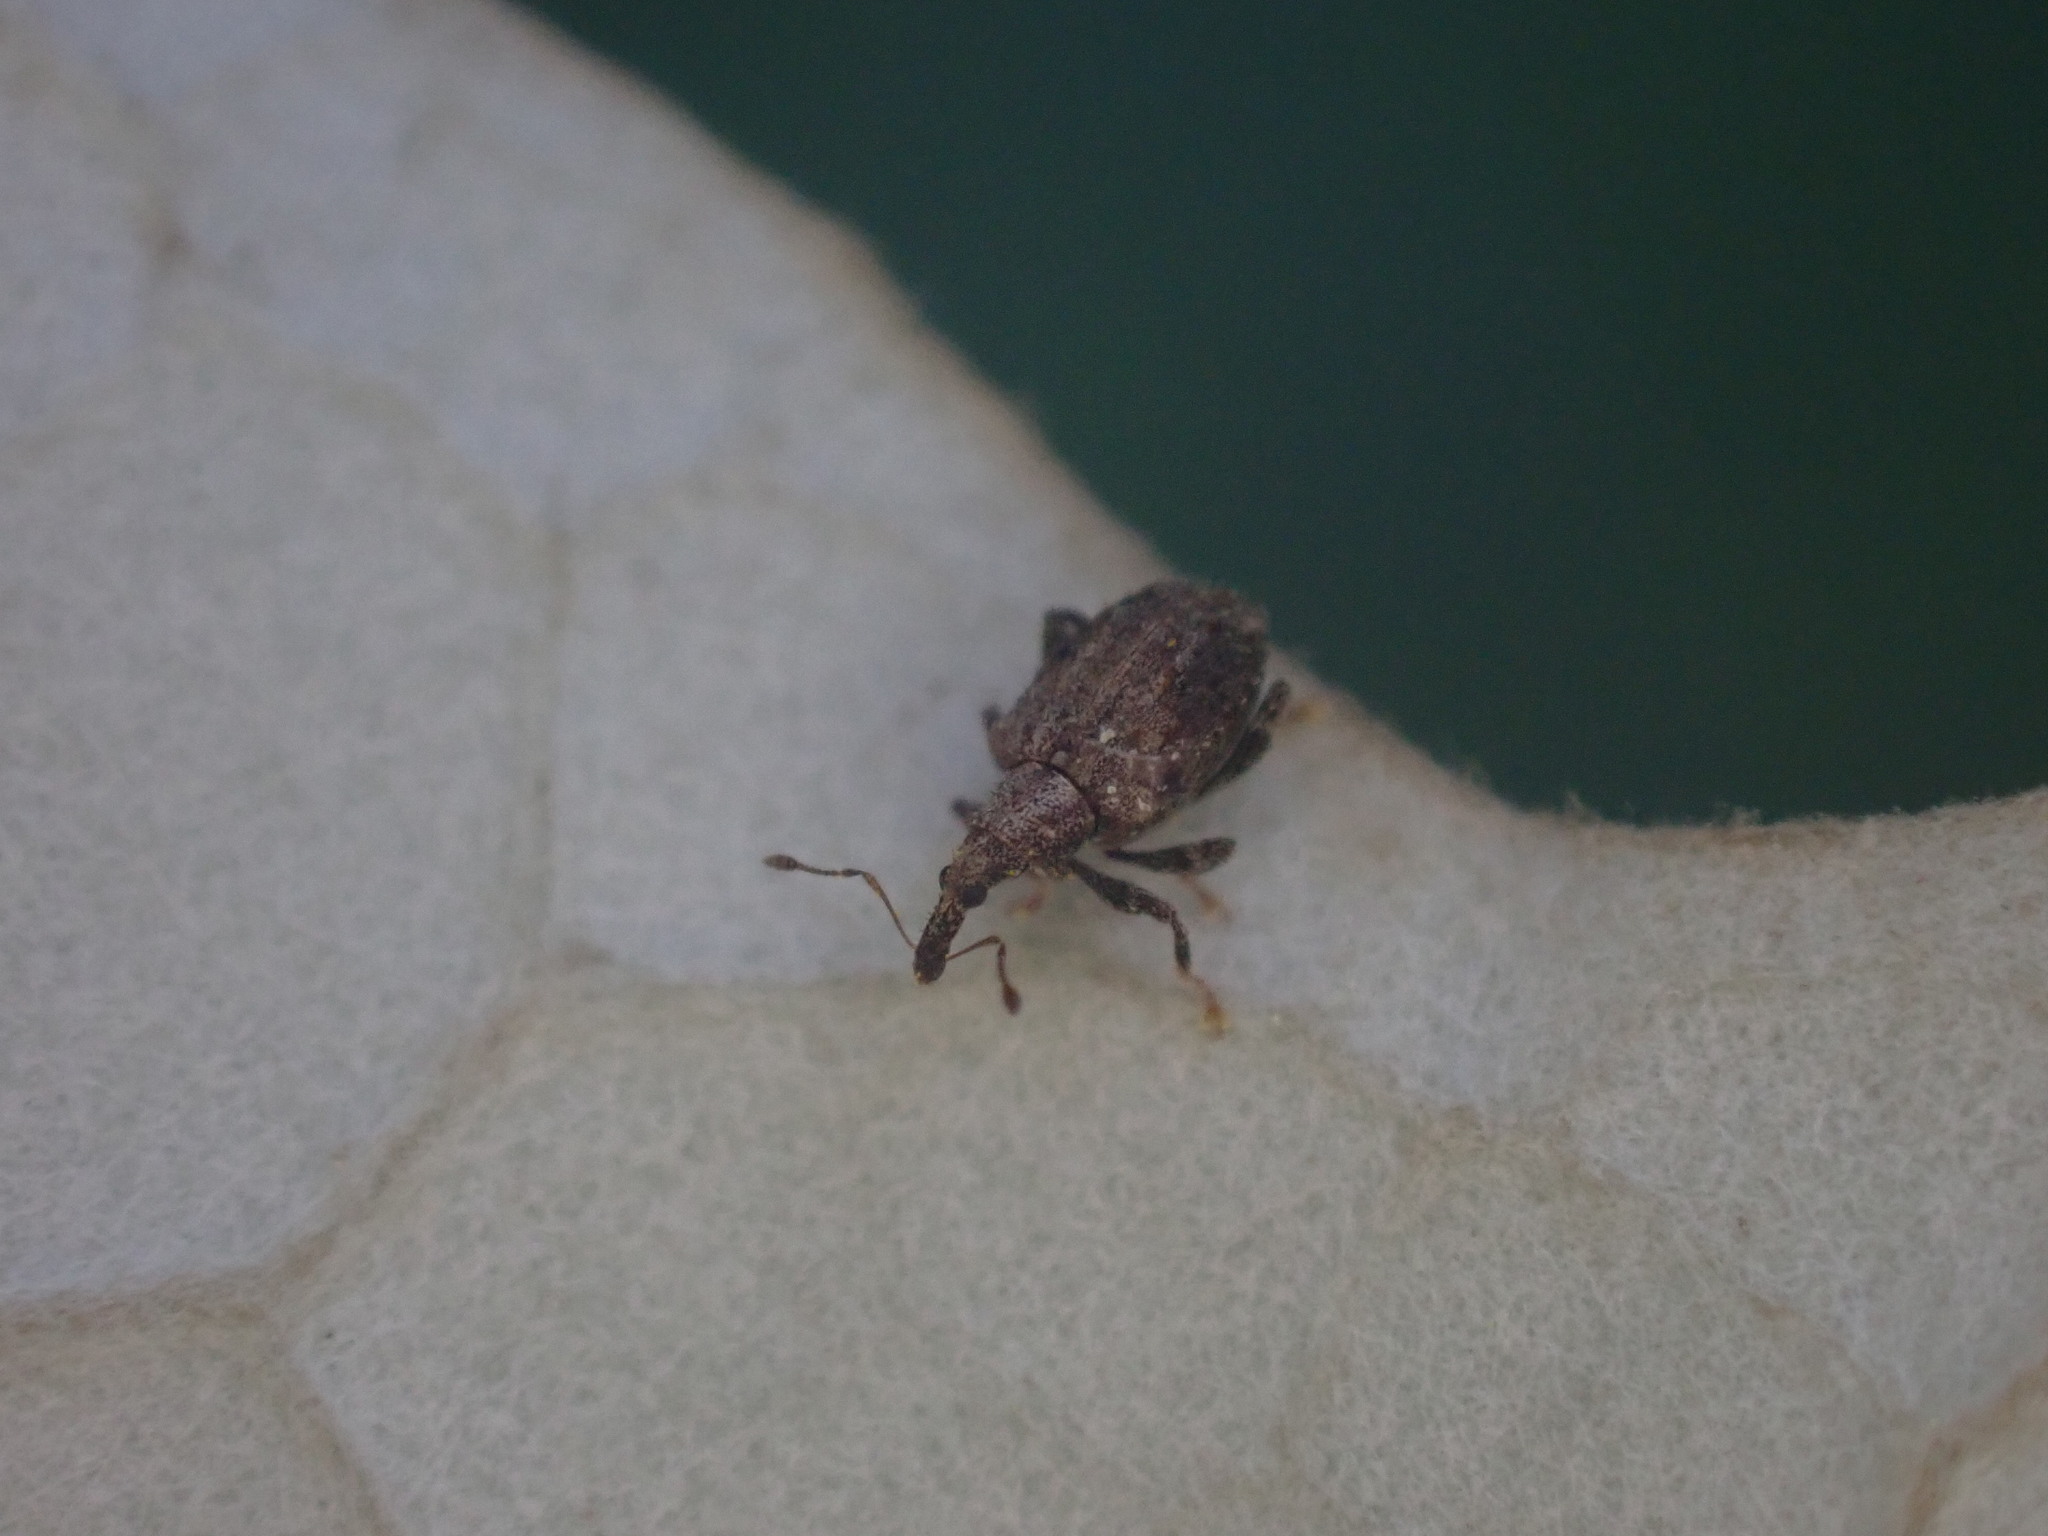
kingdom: Animalia
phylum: Arthropoda
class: Insecta
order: Coleoptera
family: Curculionidae
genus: Tysius
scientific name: Tysius bicornis
